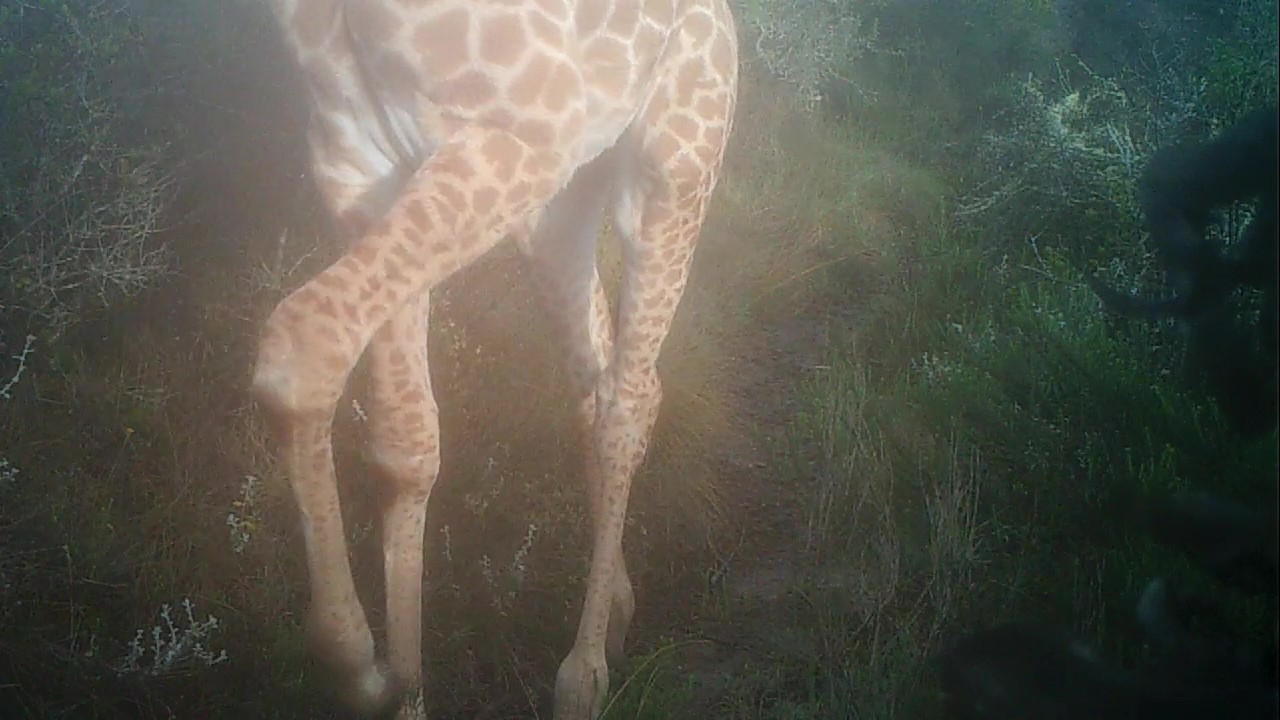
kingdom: Animalia
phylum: Chordata
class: Mammalia
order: Artiodactyla
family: Giraffidae
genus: Giraffa
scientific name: Giraffa giraffa
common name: Southern giraffe
